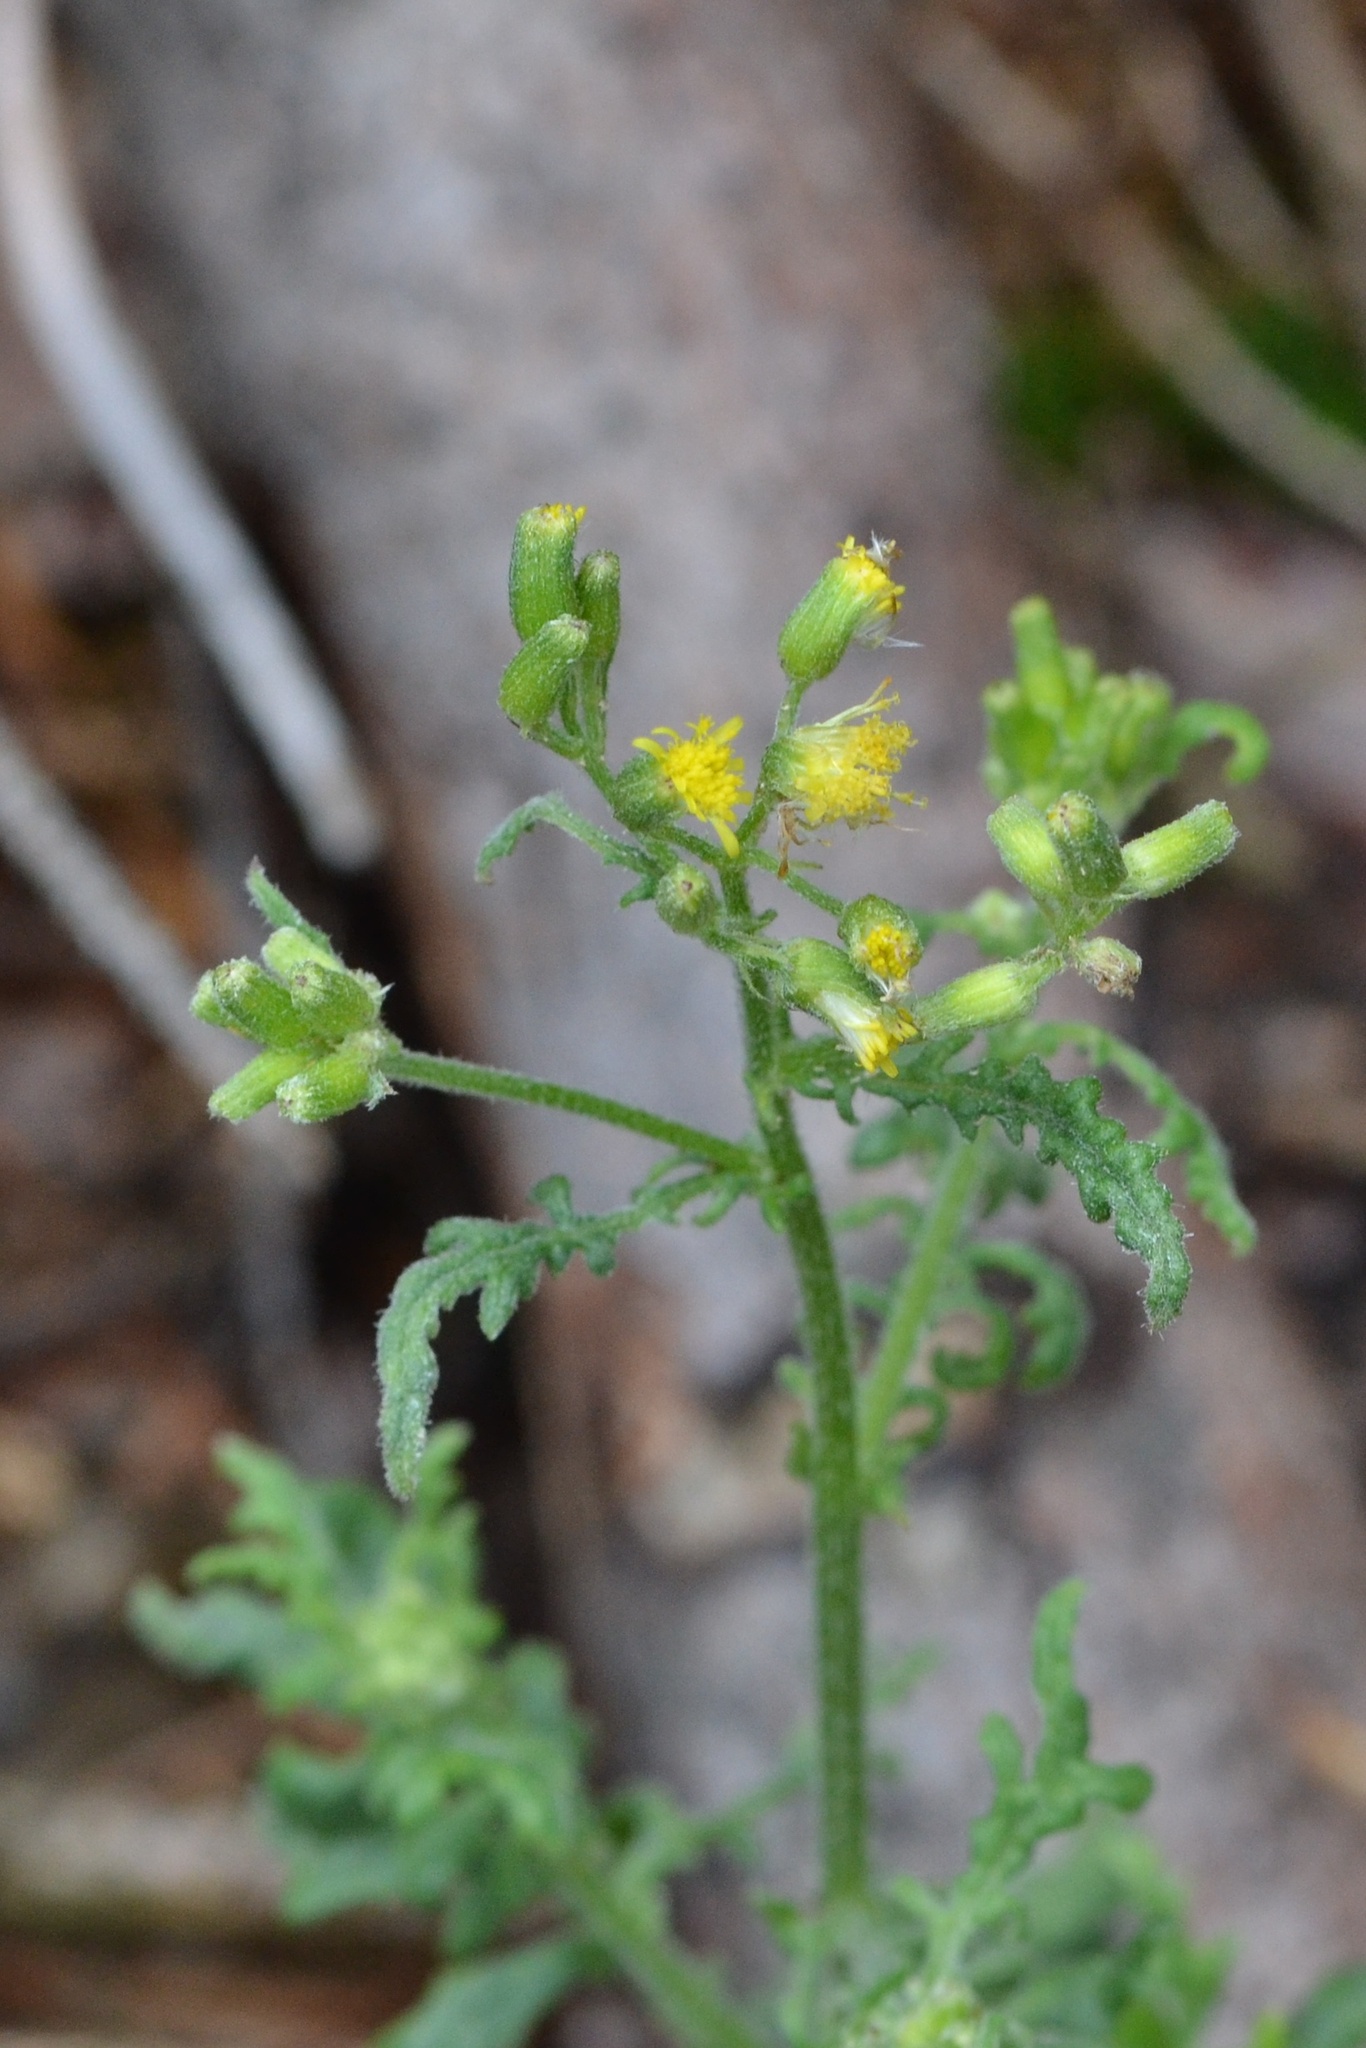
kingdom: Plantae
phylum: Tracheophyta
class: Magnoliopsida
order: Asterales
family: Asteraceae
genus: Senecio
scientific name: Senecio sylvaticus
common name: Woodland ragwort
